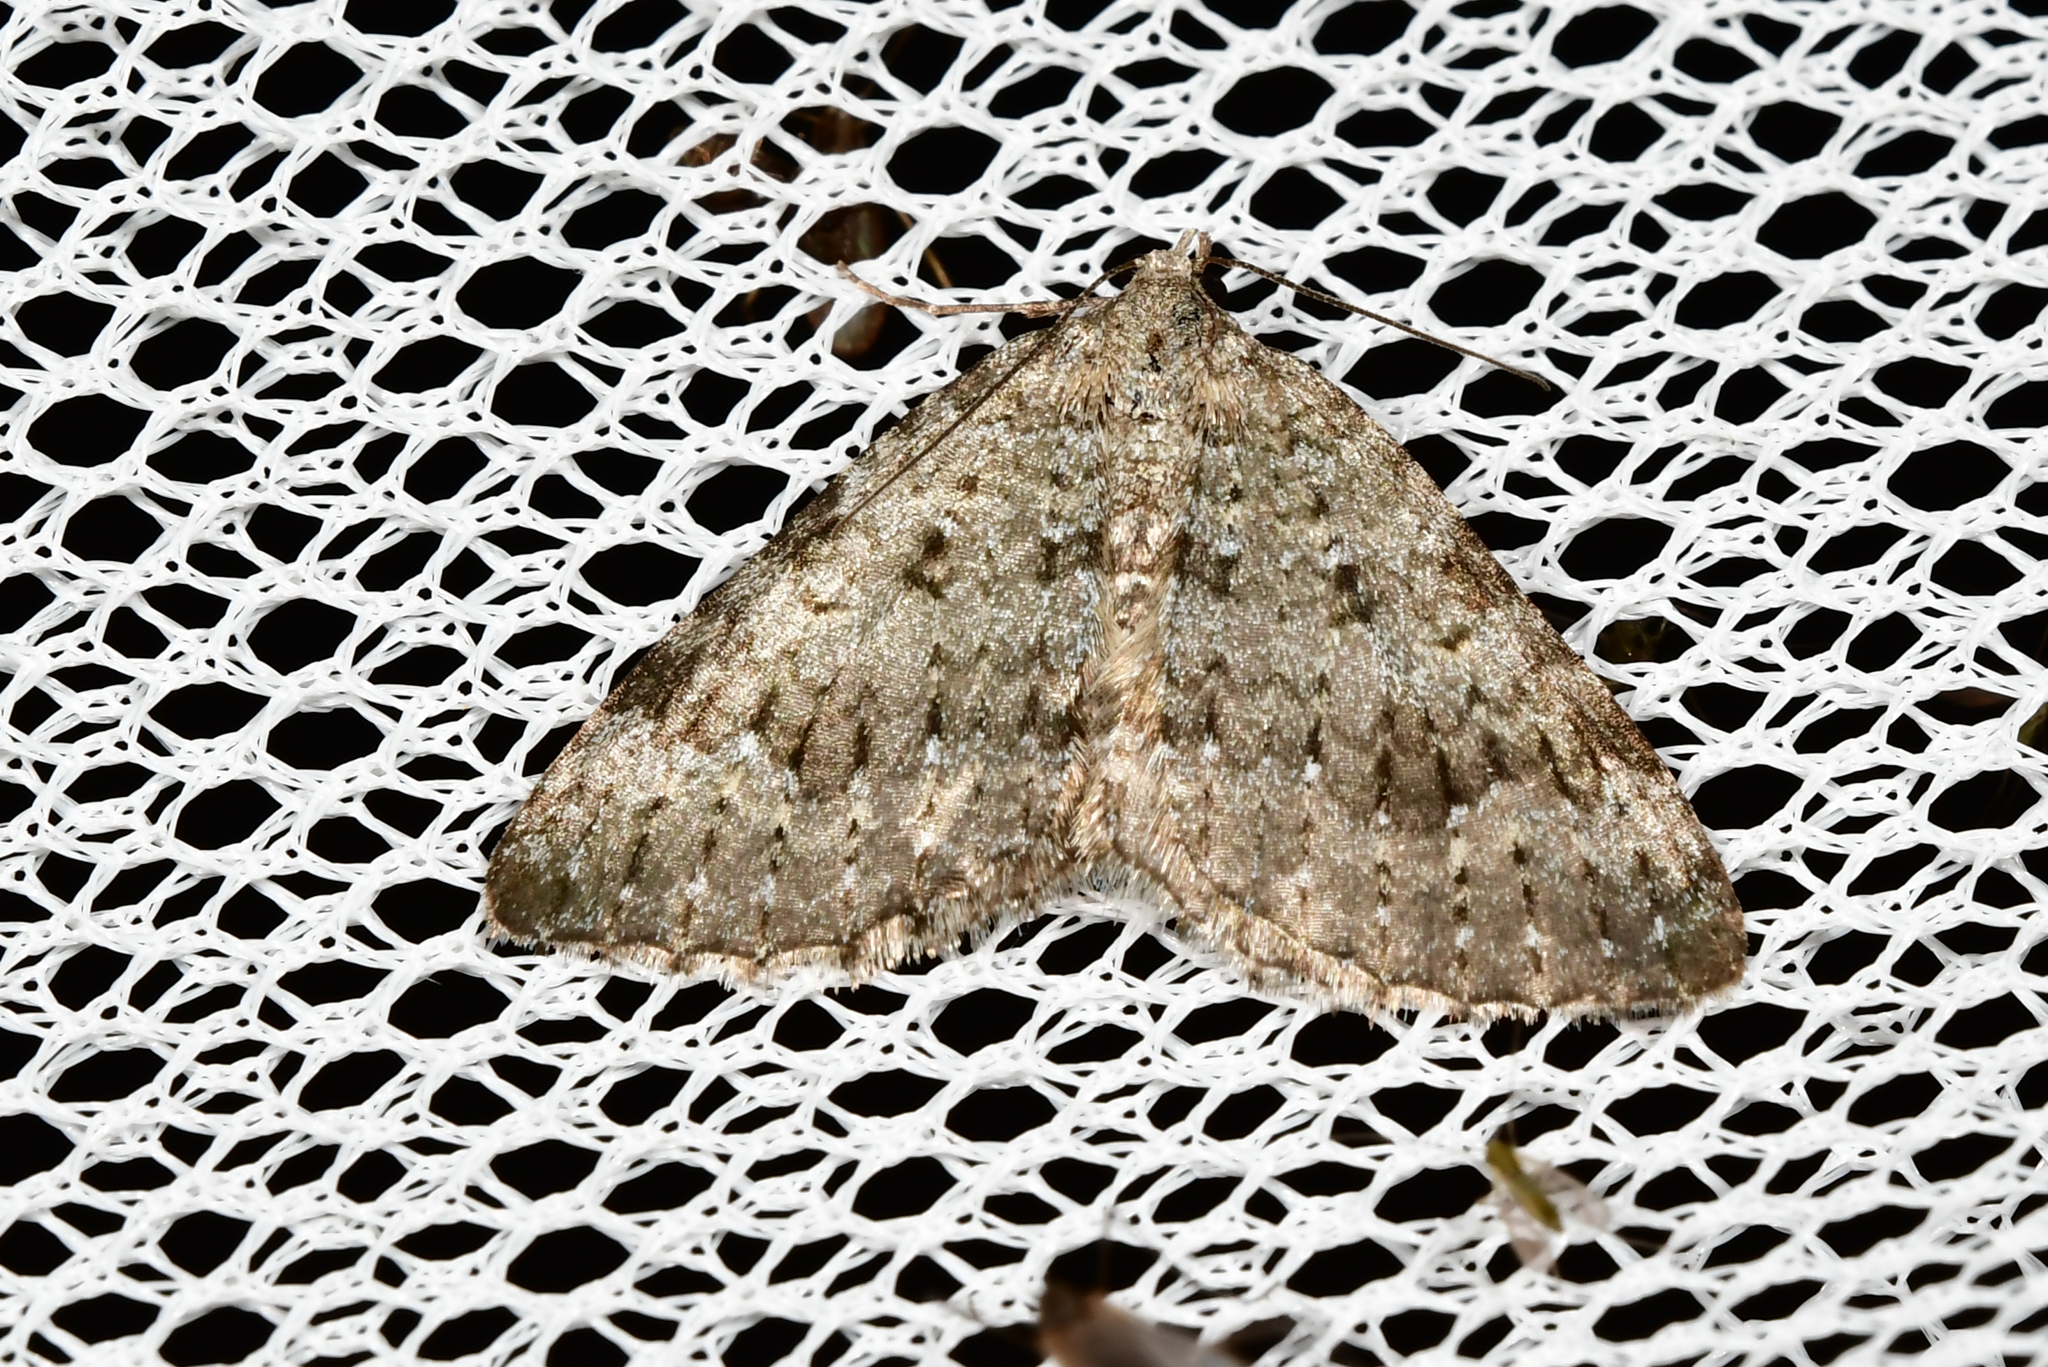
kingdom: Animalia
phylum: Arthropoda
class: Insecta
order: Lepidoptera
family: Geometridae
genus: Helastia
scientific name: Helastia corcularia
